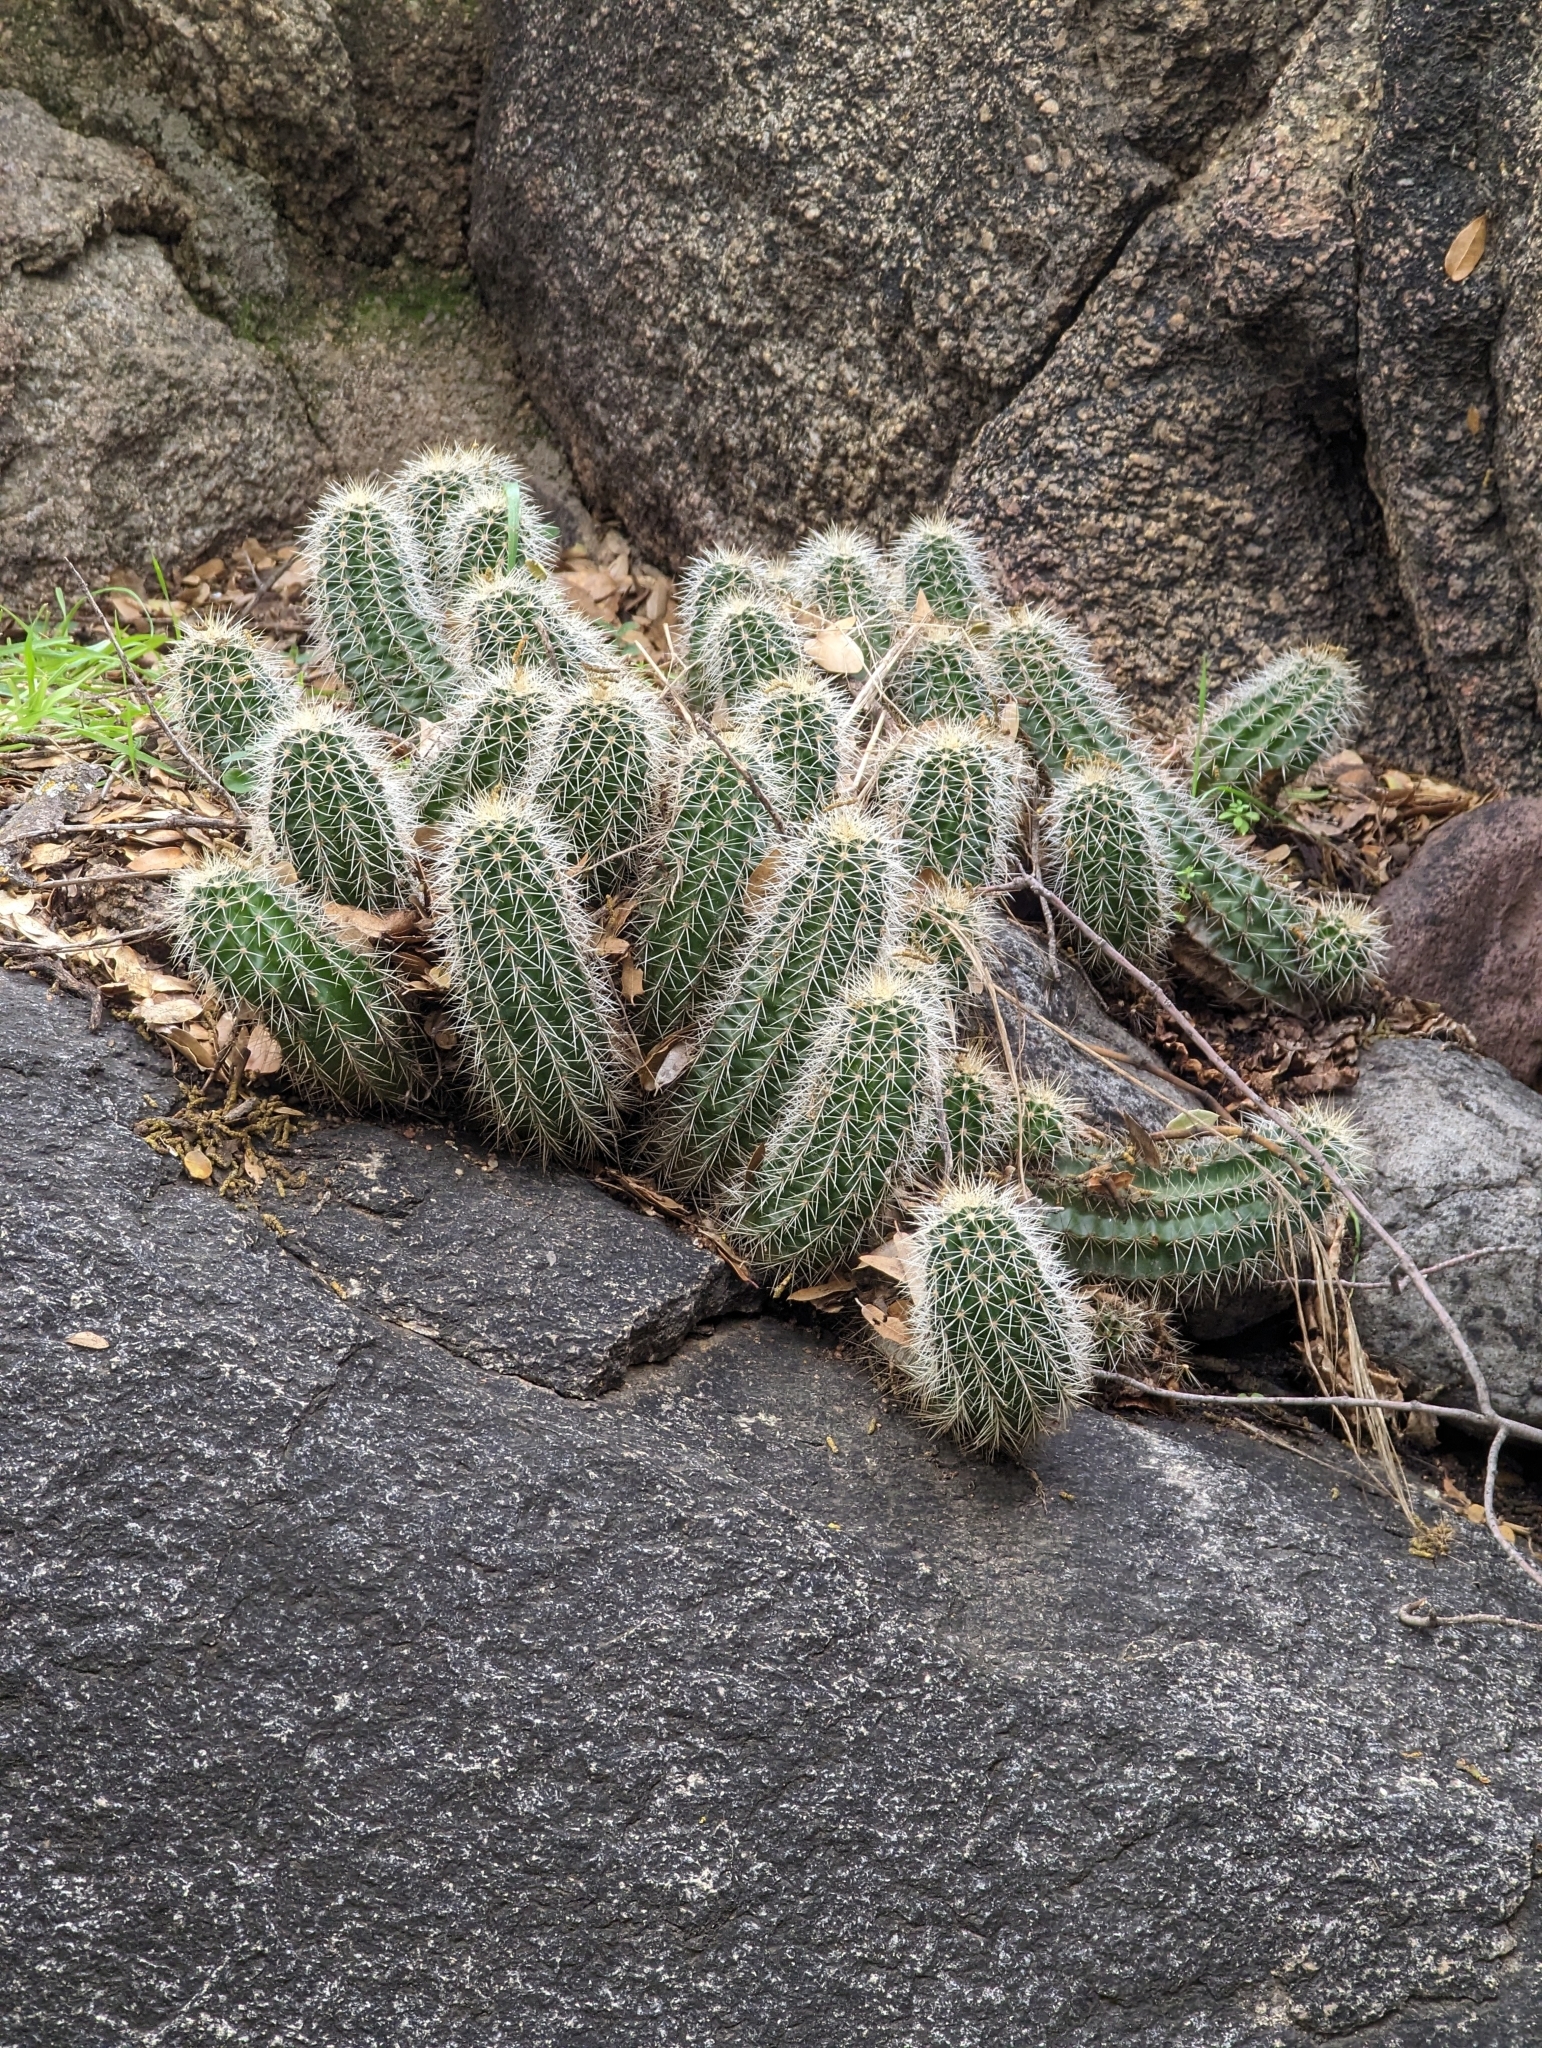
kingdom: Plantae
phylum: Tracheophyta
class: Magnoliopsida
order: Caryophyllales
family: Cactaceae
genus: Echinocereus
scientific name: Echinocereus yavapaiensis
